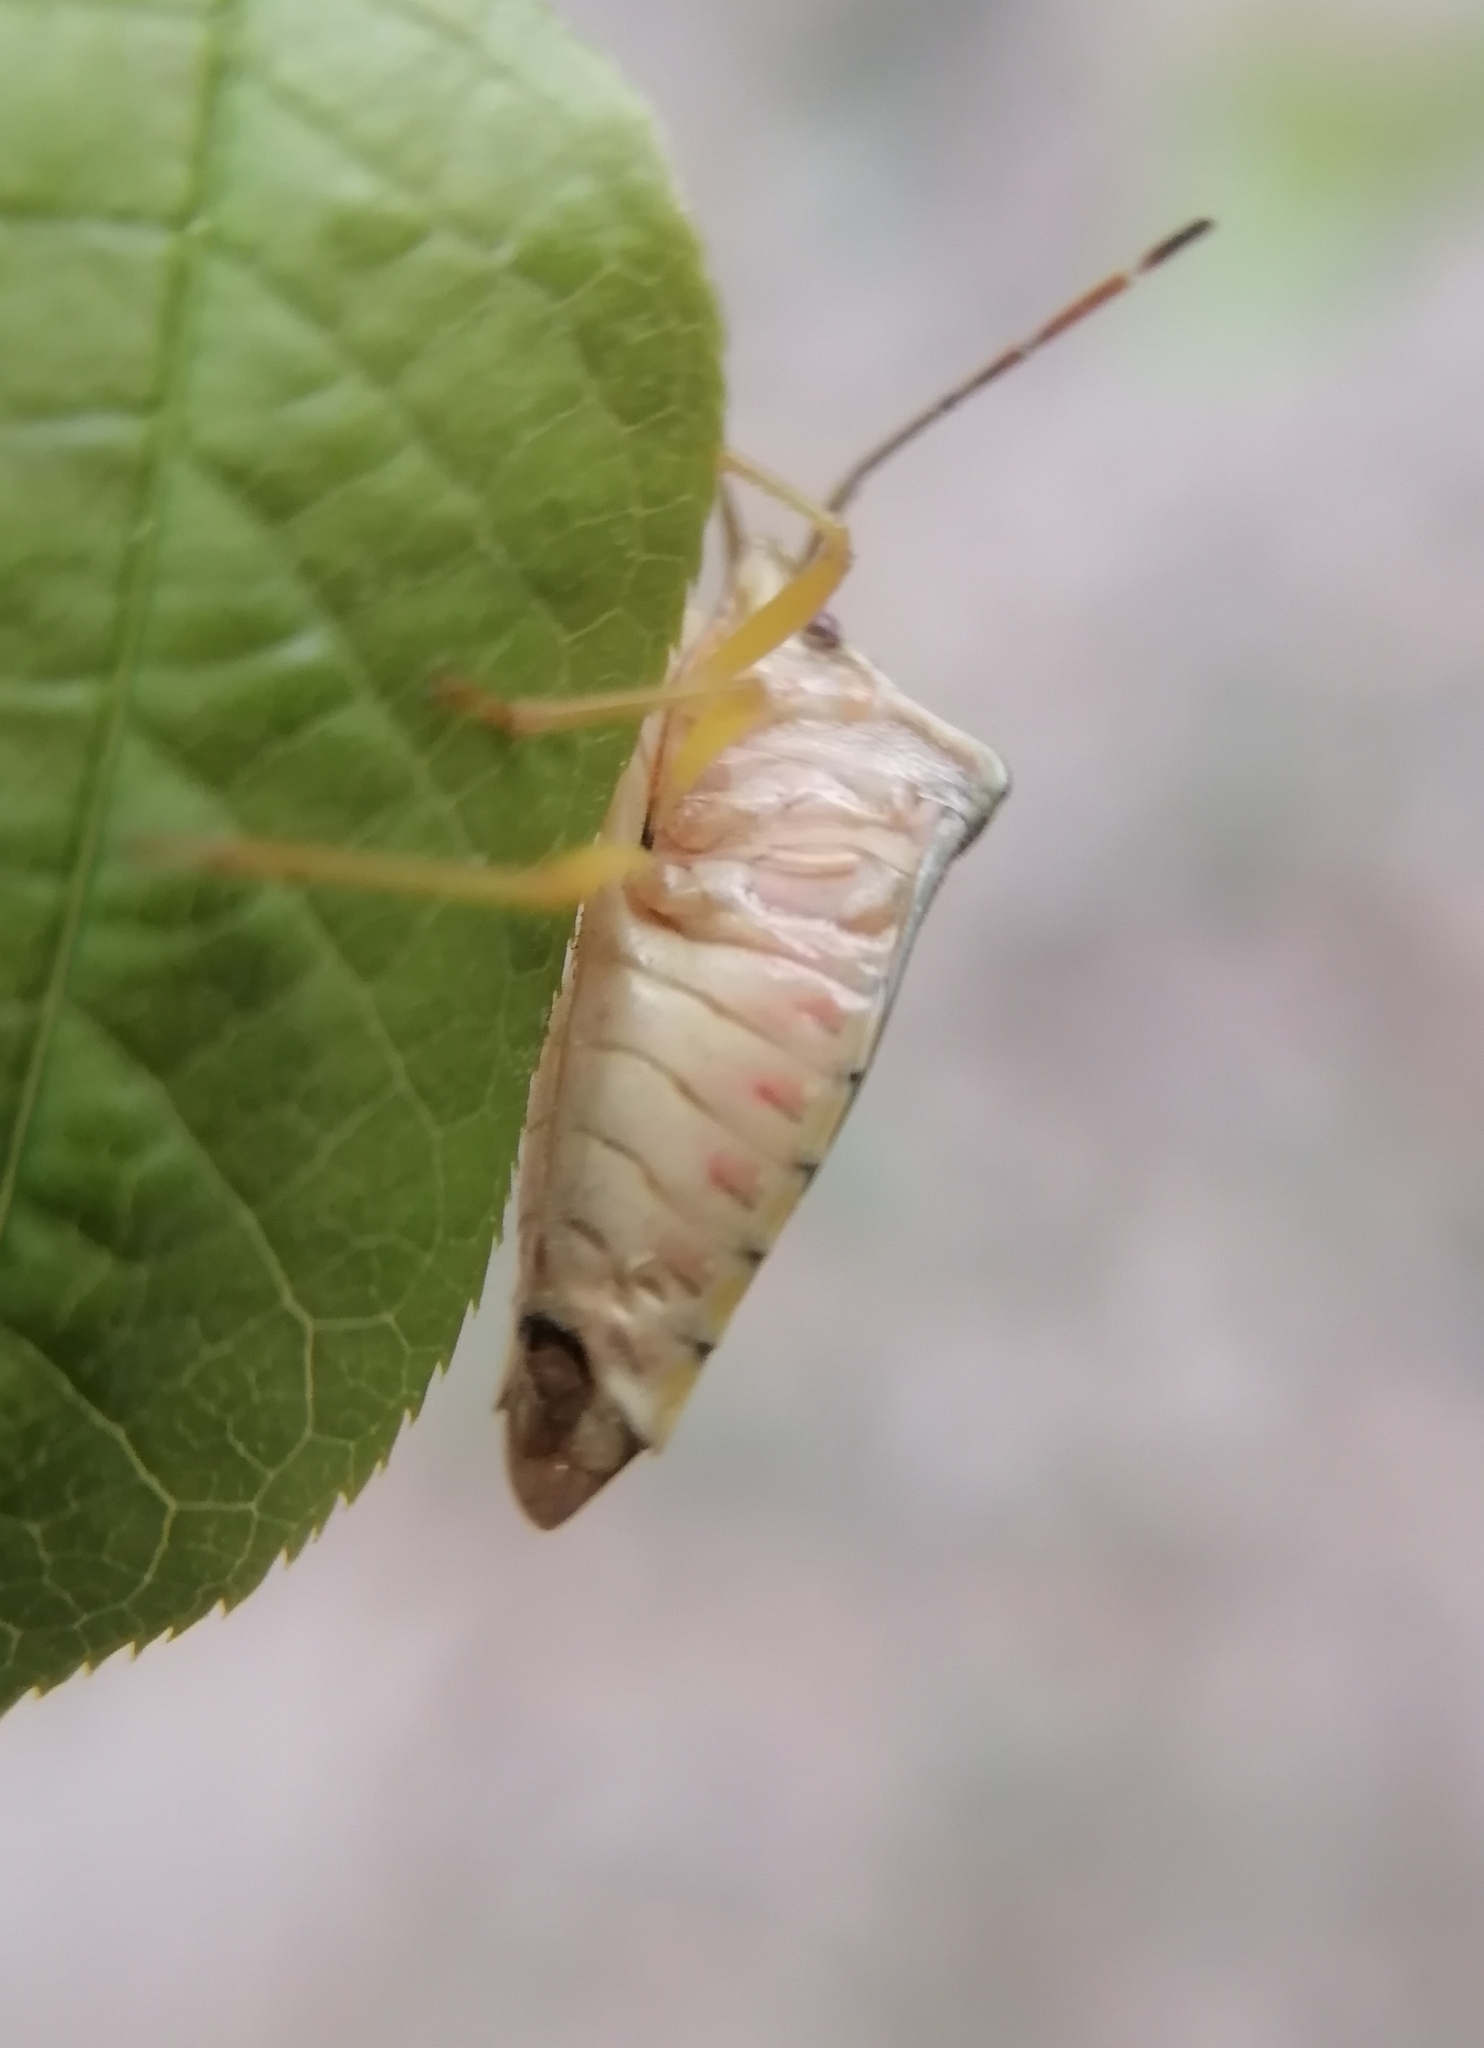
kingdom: Animalia
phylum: Arthropoda
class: Insecta
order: Hemiptera
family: Acanthosomatidae
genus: Acanthosoma
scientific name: Acanthosoma denticaudum
